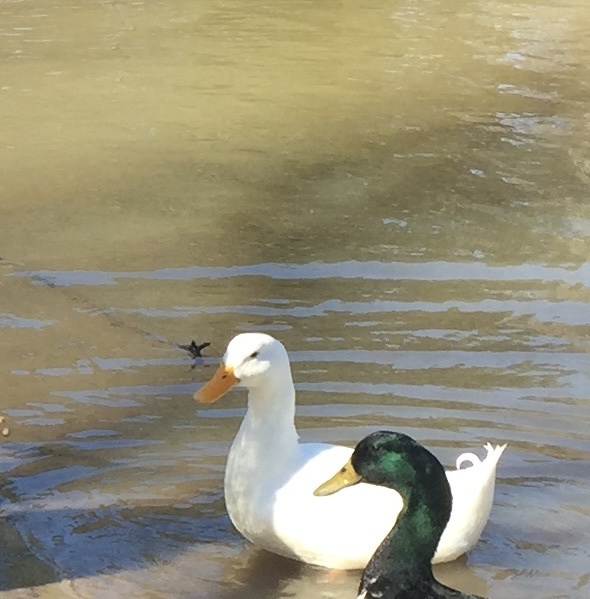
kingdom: Animalia
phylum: Chordata
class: Aves
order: Anseriformes
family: Anatidae
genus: Anas
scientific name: Anas platyrhynchos
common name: Mallard
